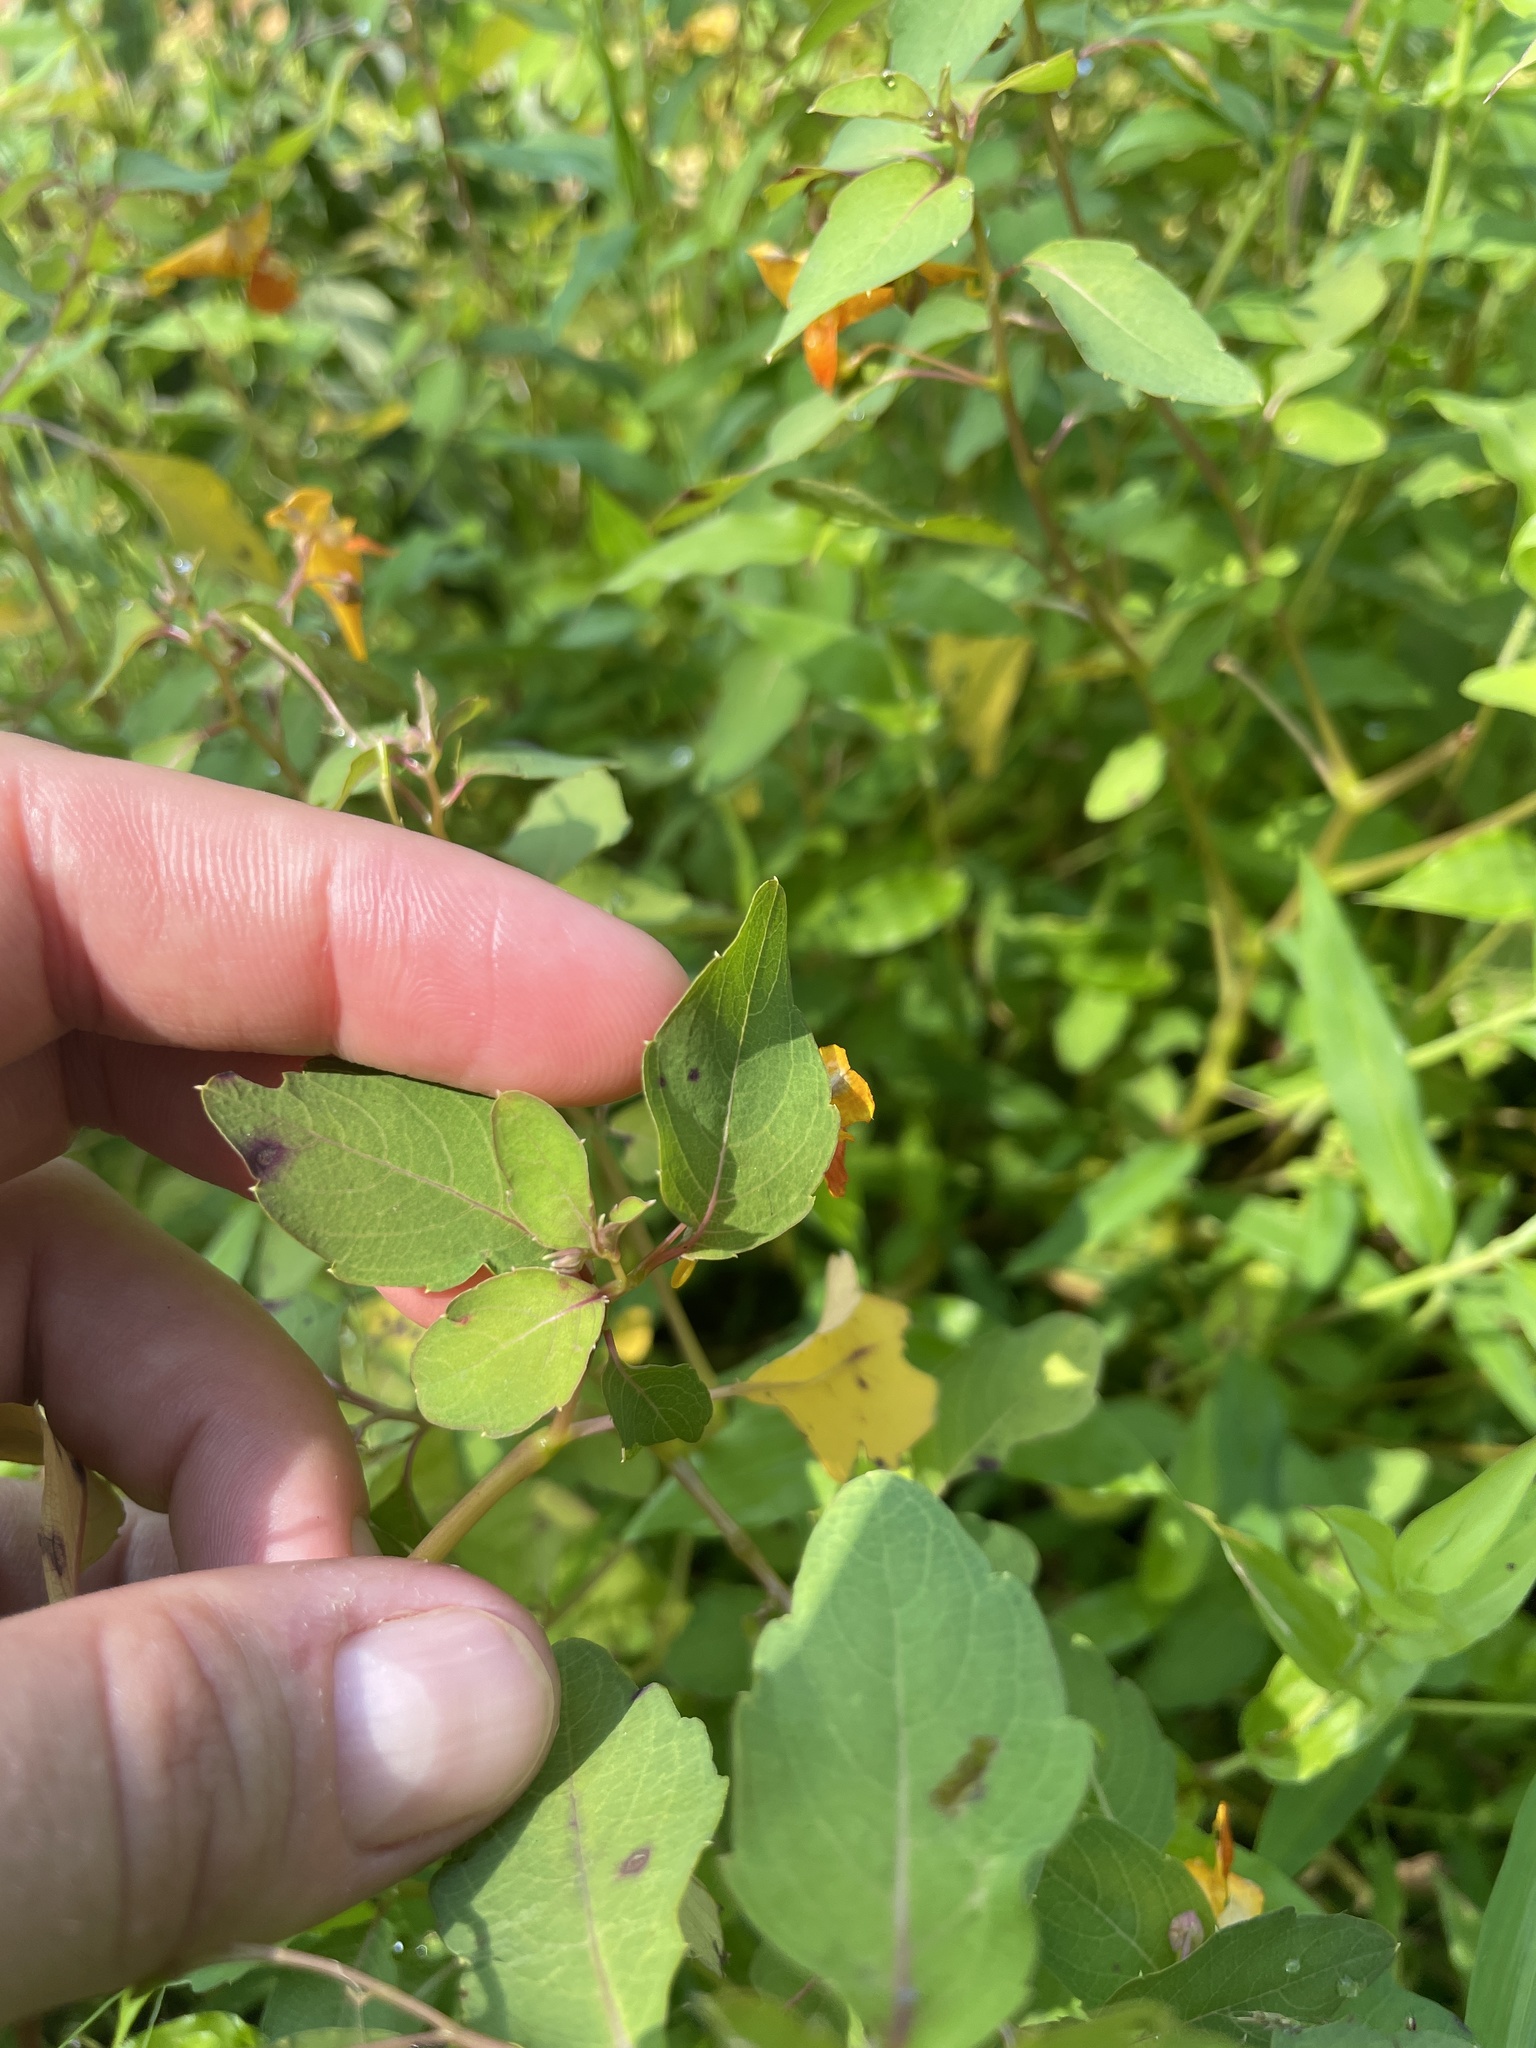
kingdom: Plantae
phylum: Tracheophyta
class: Magnoliopsida
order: Ericales
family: Balsaminaceae
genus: Impatiens
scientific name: Impatiens capensis
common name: Orange balsam
